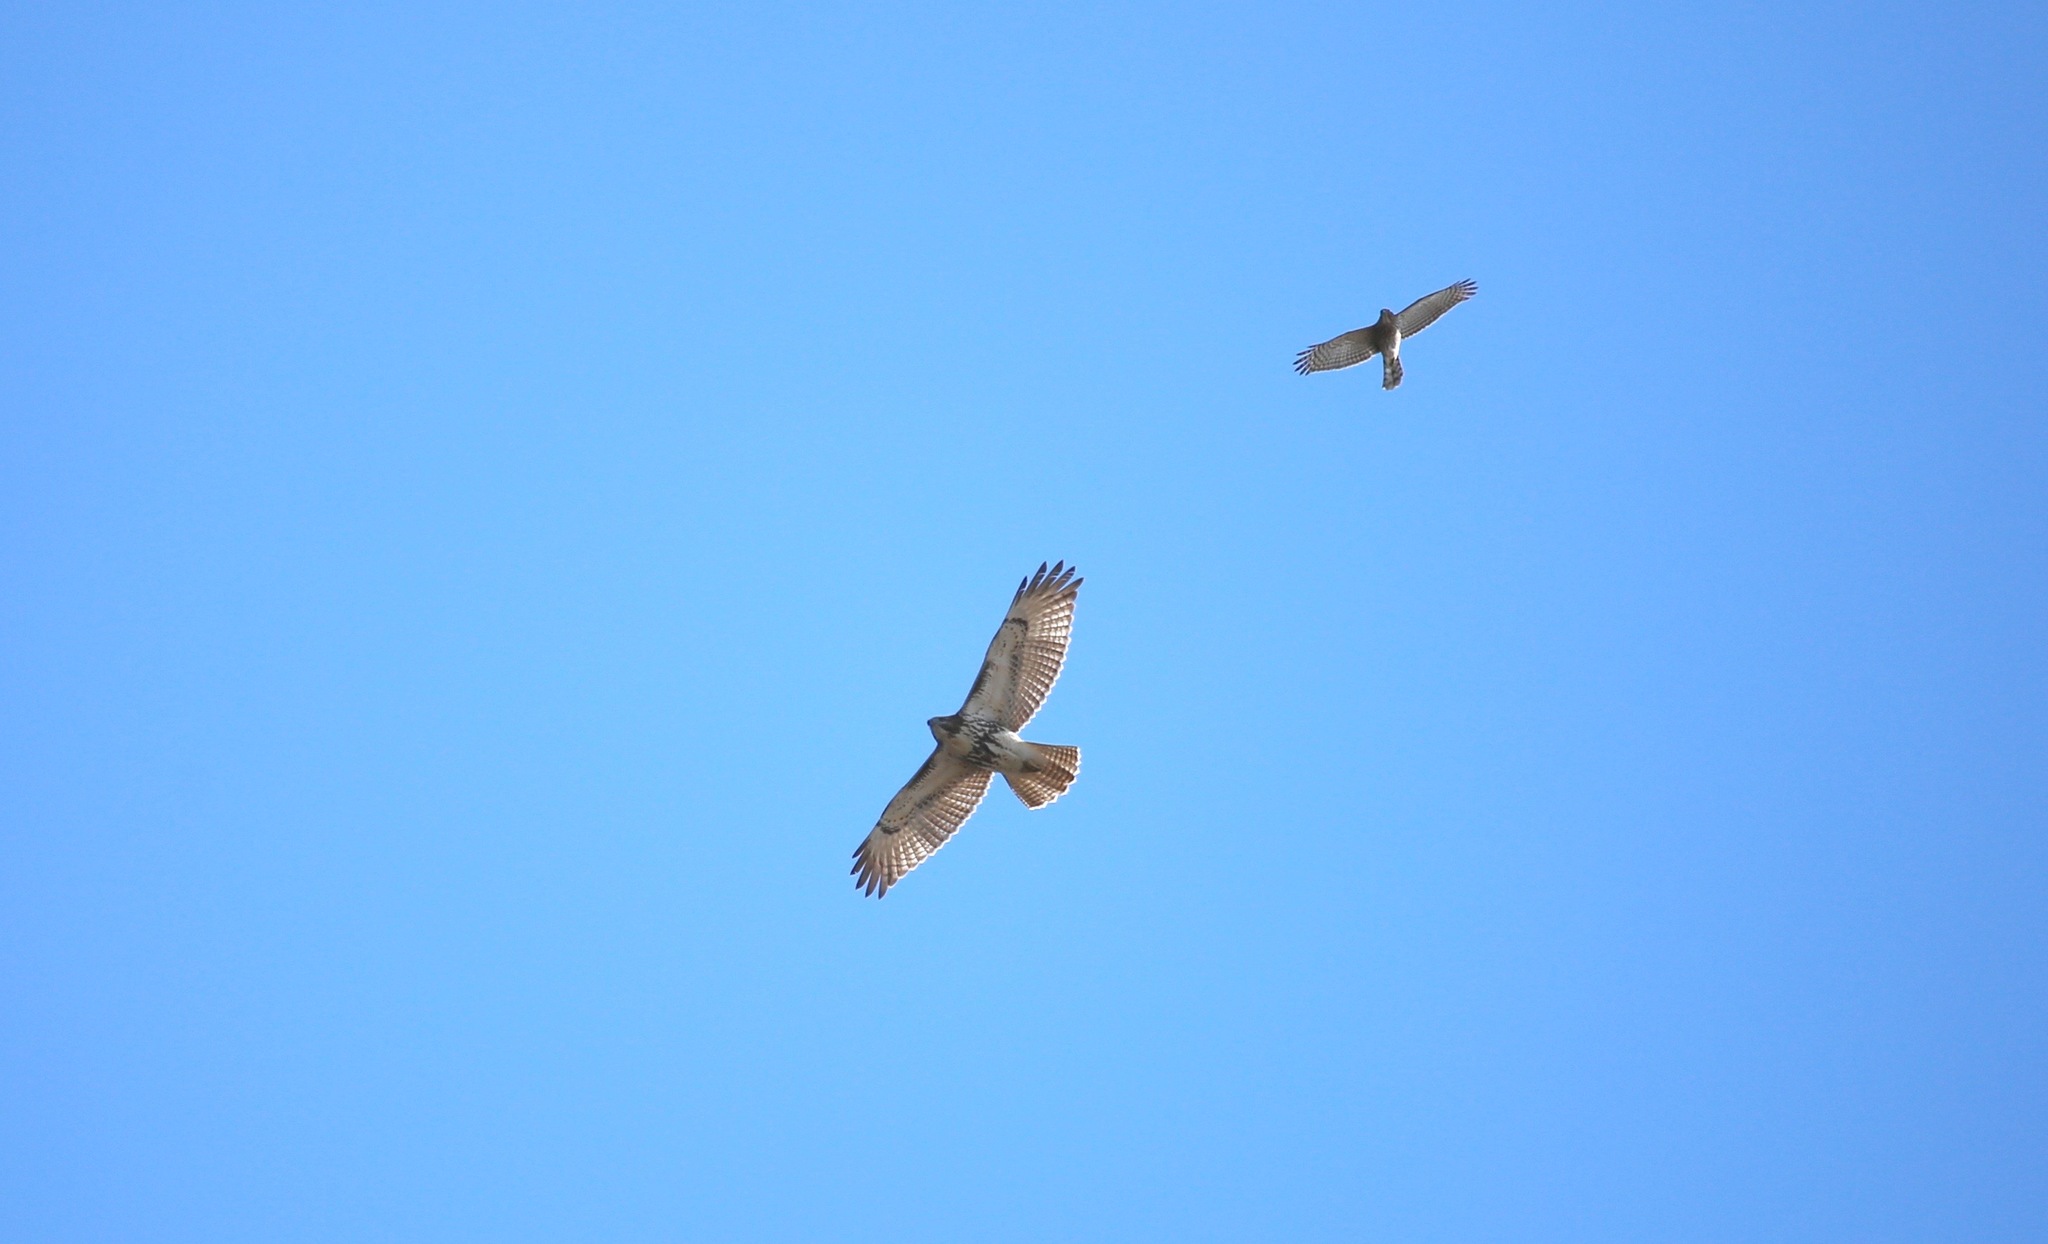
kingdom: Animalia
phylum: Chordata
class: Aves
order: Accipitriformes
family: Accipitridae
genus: Buteo
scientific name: Buteo jamaicensis
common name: Red-tailed hawk
